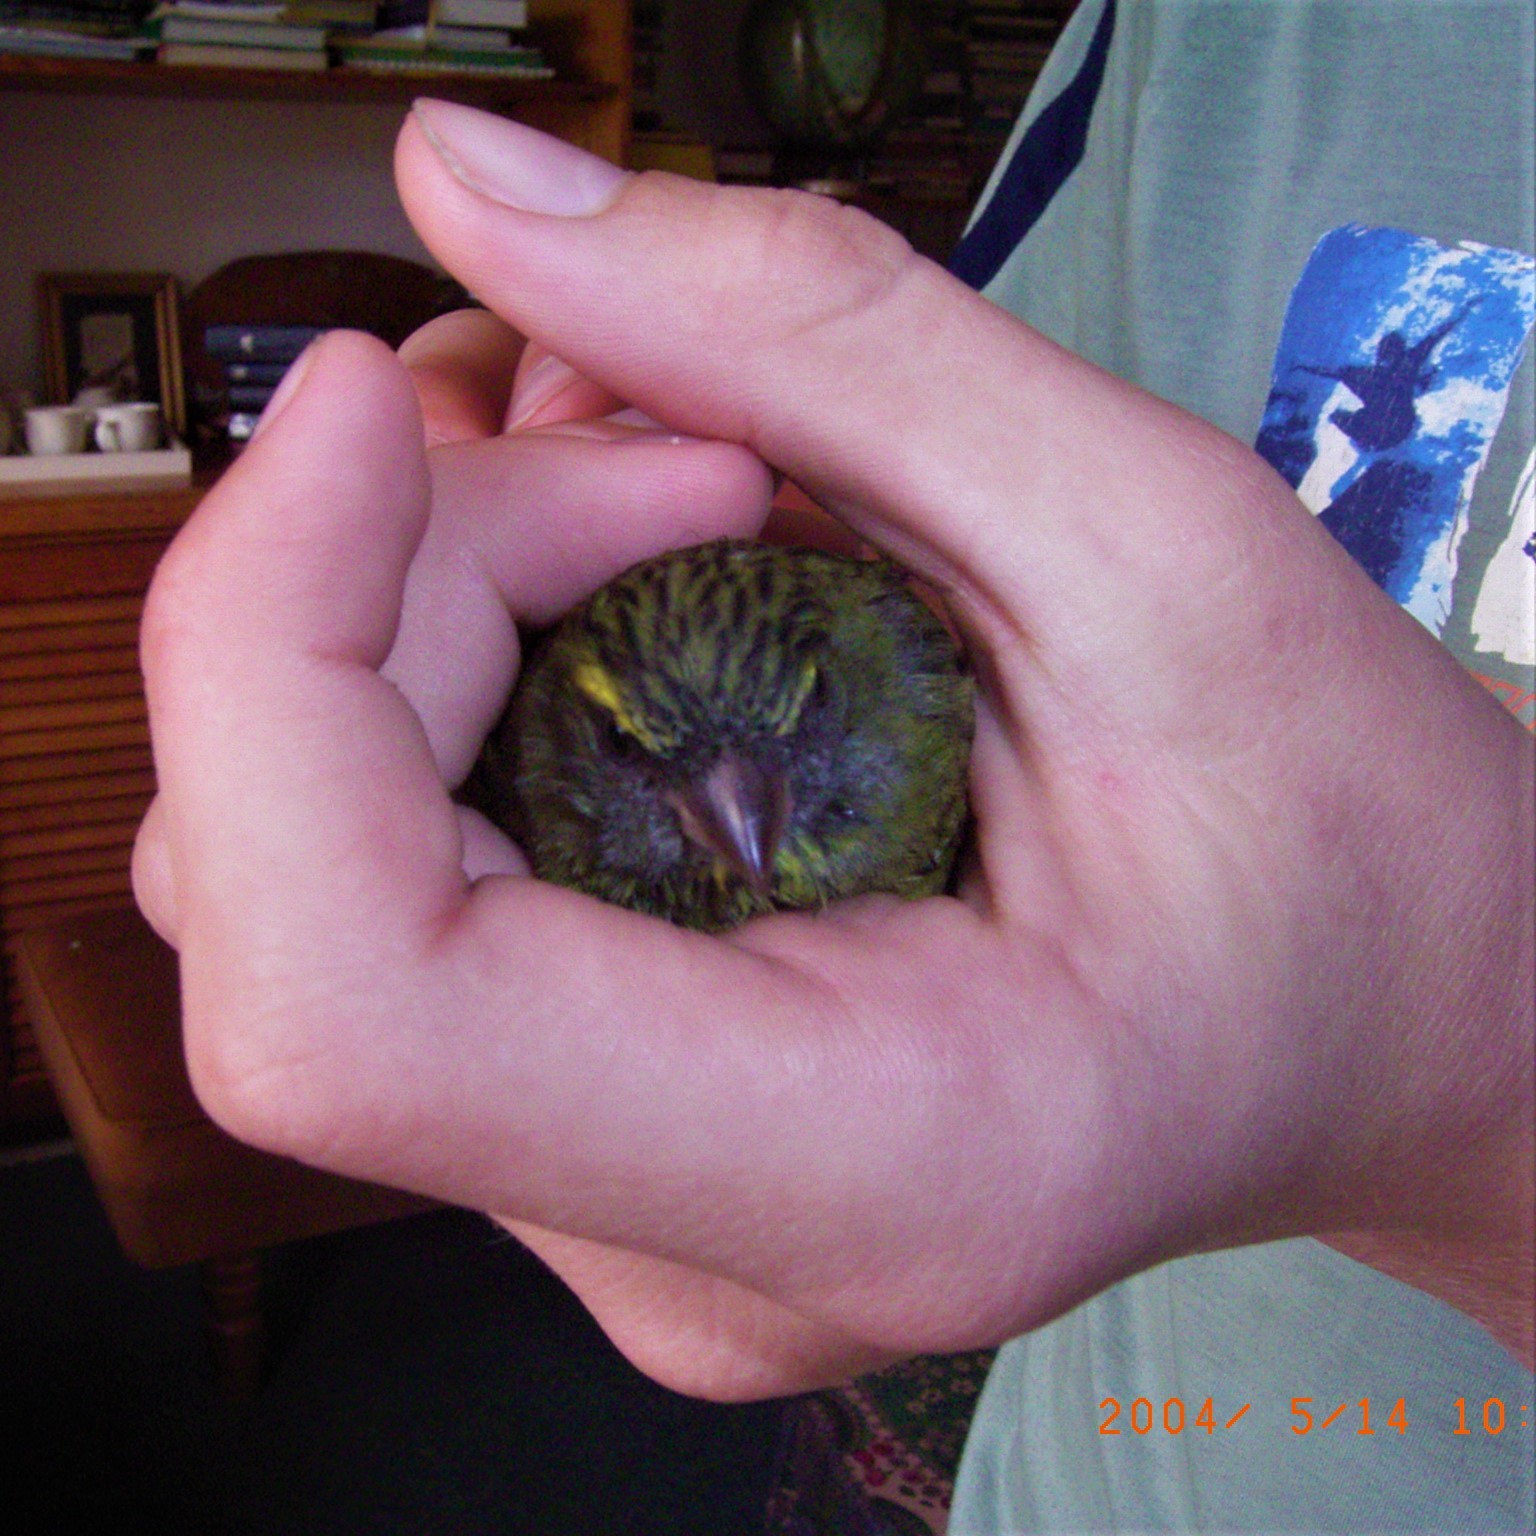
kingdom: Animalia
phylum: Chordata
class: Aves
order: Passeriformes
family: Fringillidae
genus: Crithagra
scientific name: Crithagra scotops
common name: Forest canary
